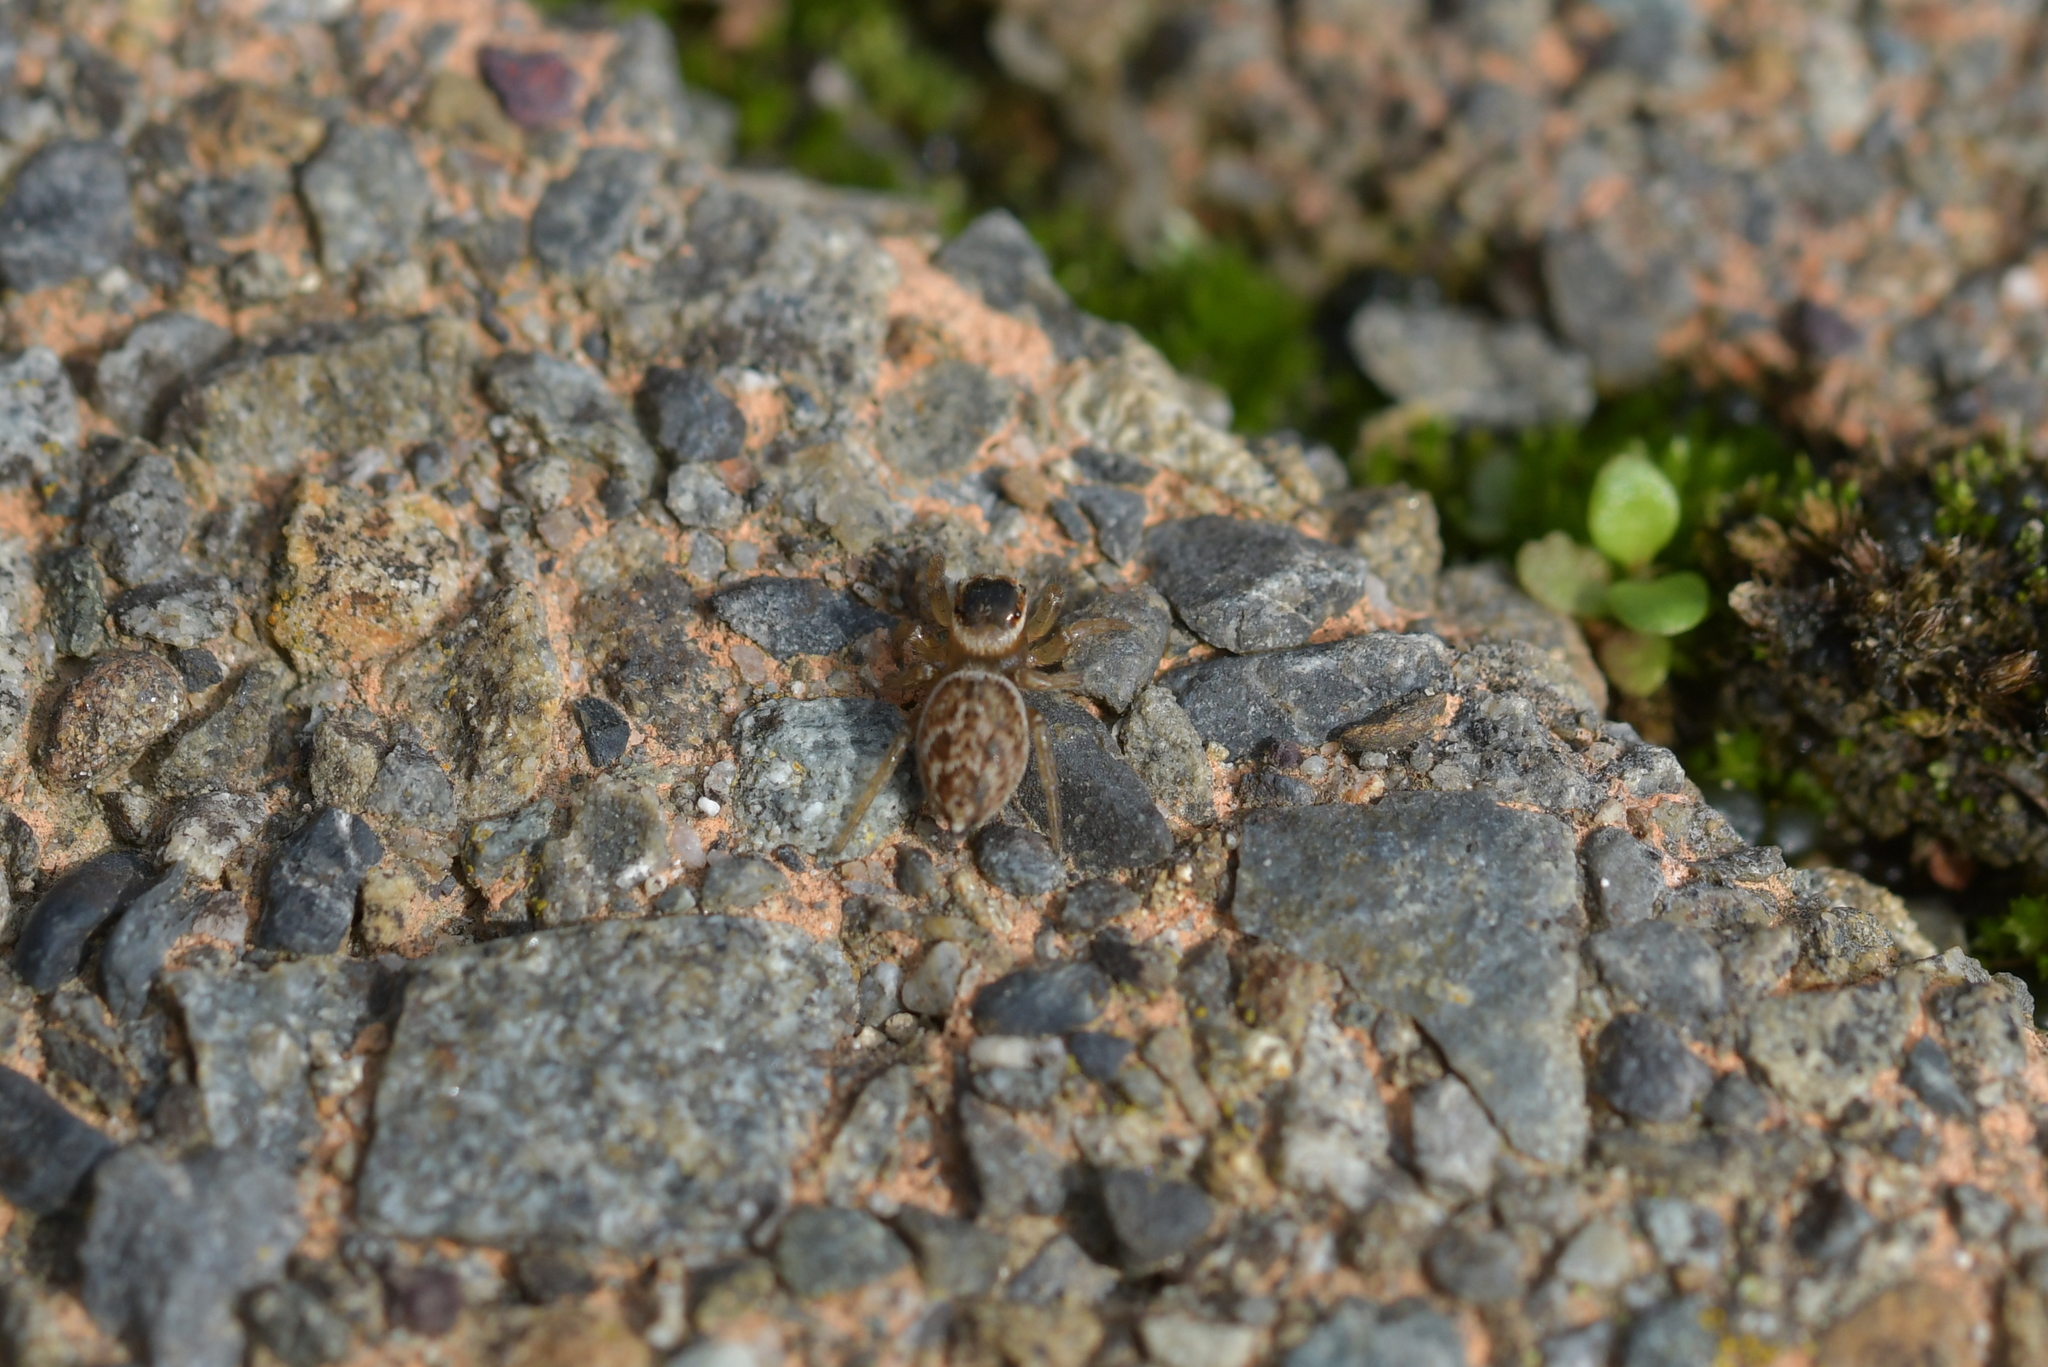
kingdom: Animalia
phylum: Arthropoda
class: Arachnida
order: Araneae
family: Salticidae
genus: Maratus
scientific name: Maratus griseus
